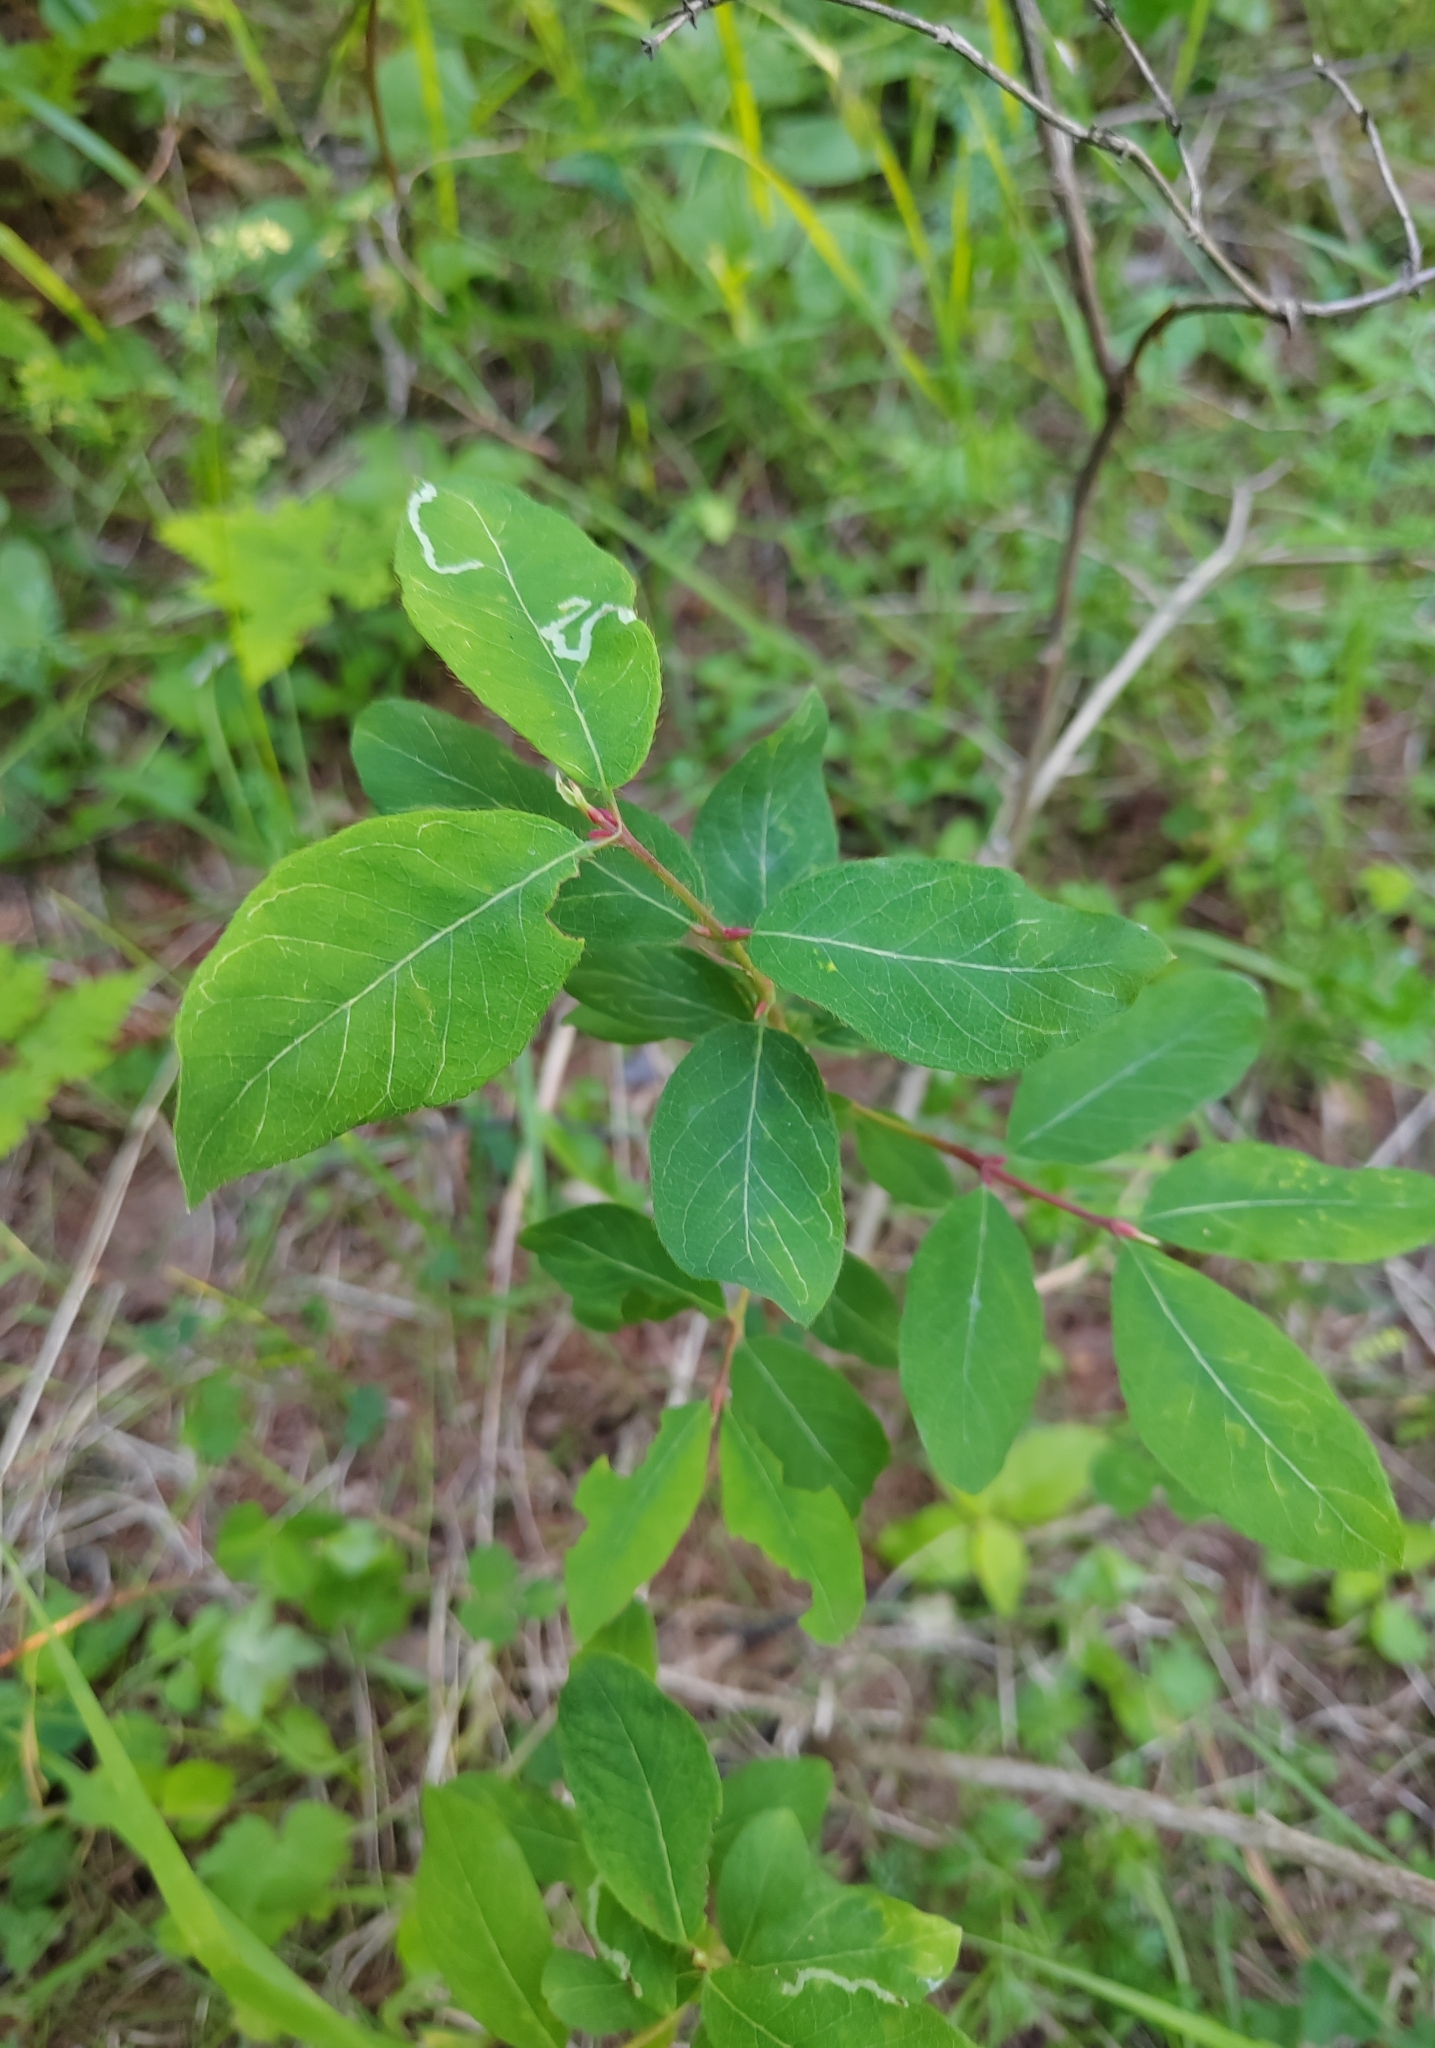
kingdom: Plantae
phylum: Tracheophyta
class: Magnoliopsida
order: Dipsacales
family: Caprifoliaceae
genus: Lonicera
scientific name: Lonicera caerulea
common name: Blue honeysuckle
